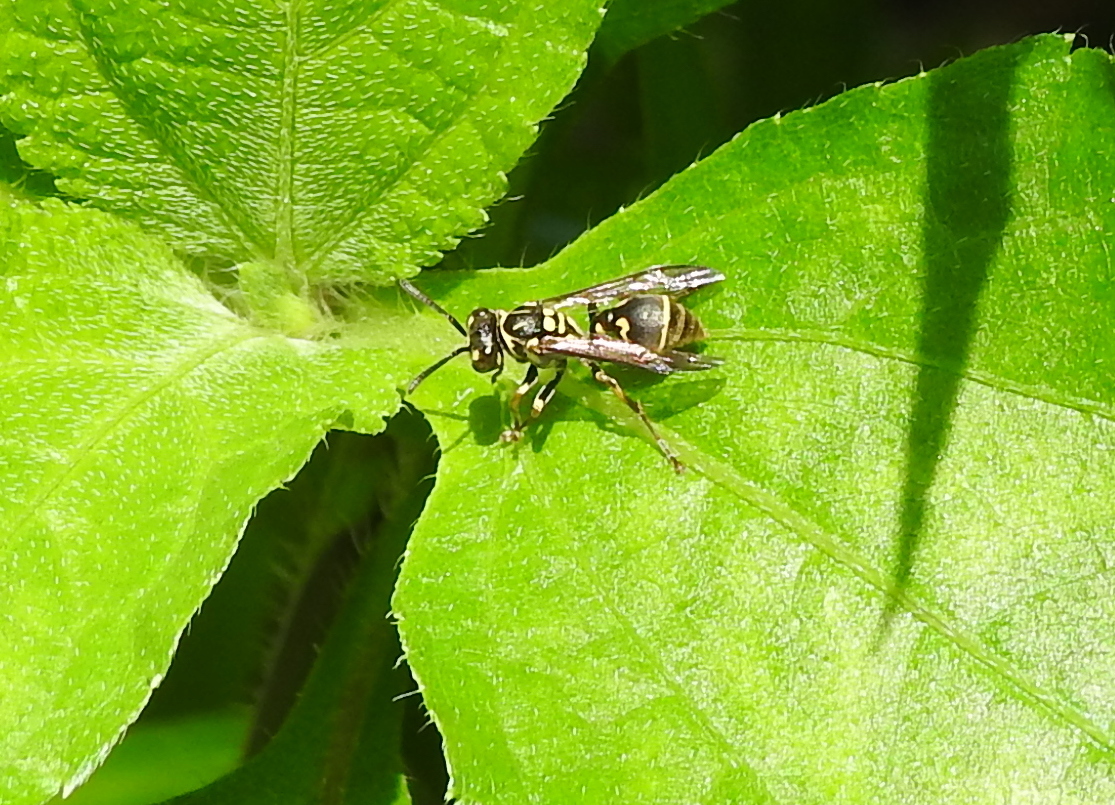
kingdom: Animalia
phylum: Arthropoda
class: Insecta
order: Hymenoptera
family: Vespidae
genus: Ropalidia
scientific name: Ropalidia flavopicta
